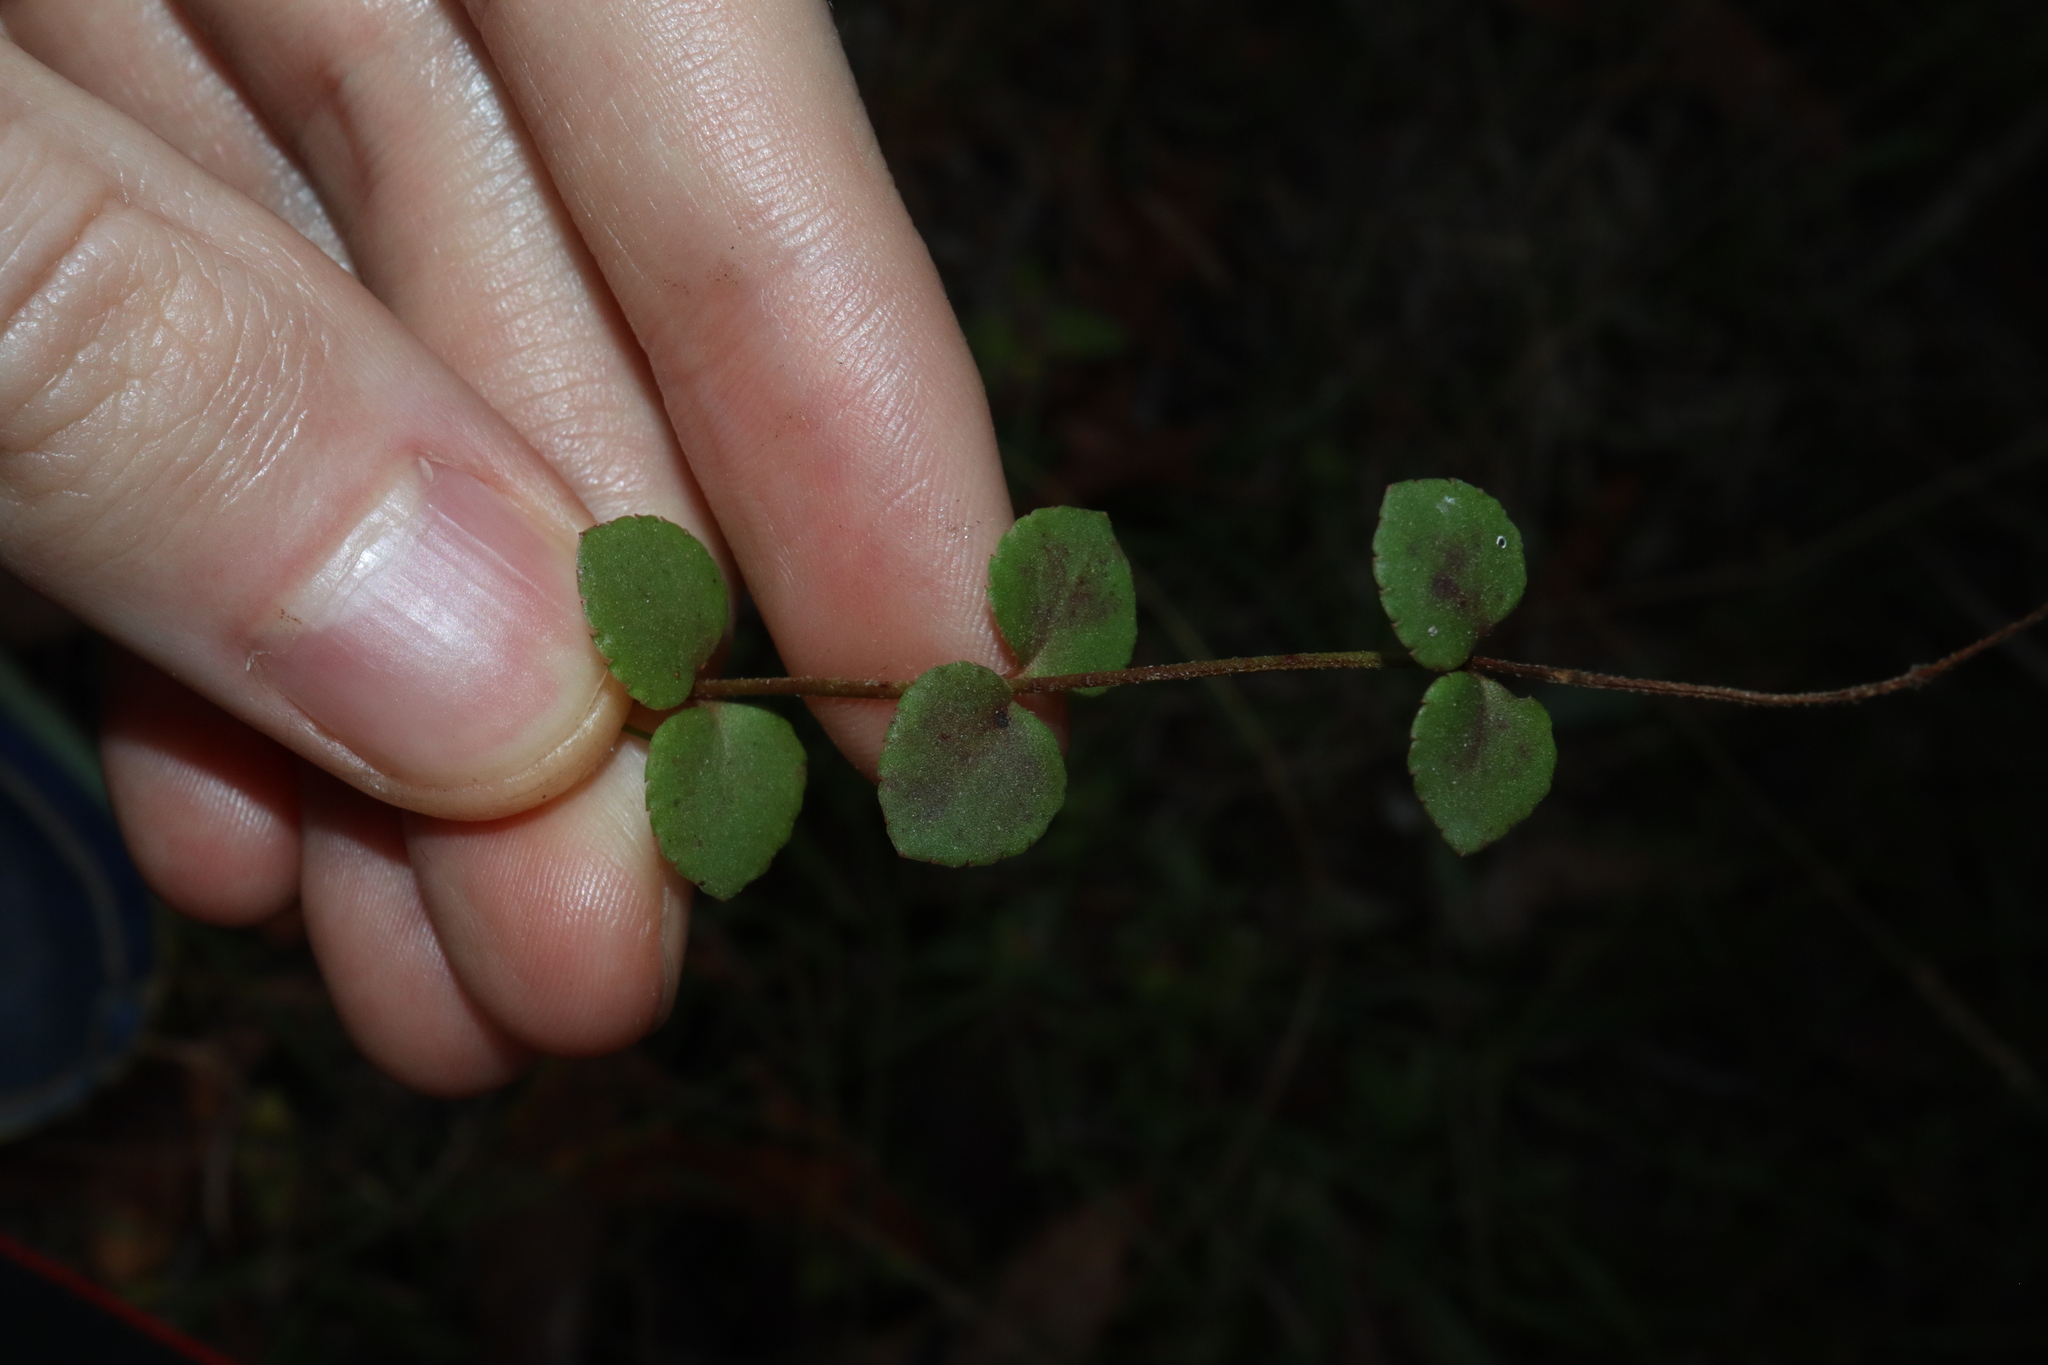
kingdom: Plantae
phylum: Tracheophyta
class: Magnoliopsida
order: Saxifragales
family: Haloragaceae
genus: Gonocarpus
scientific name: Gonocarpus micranthus
